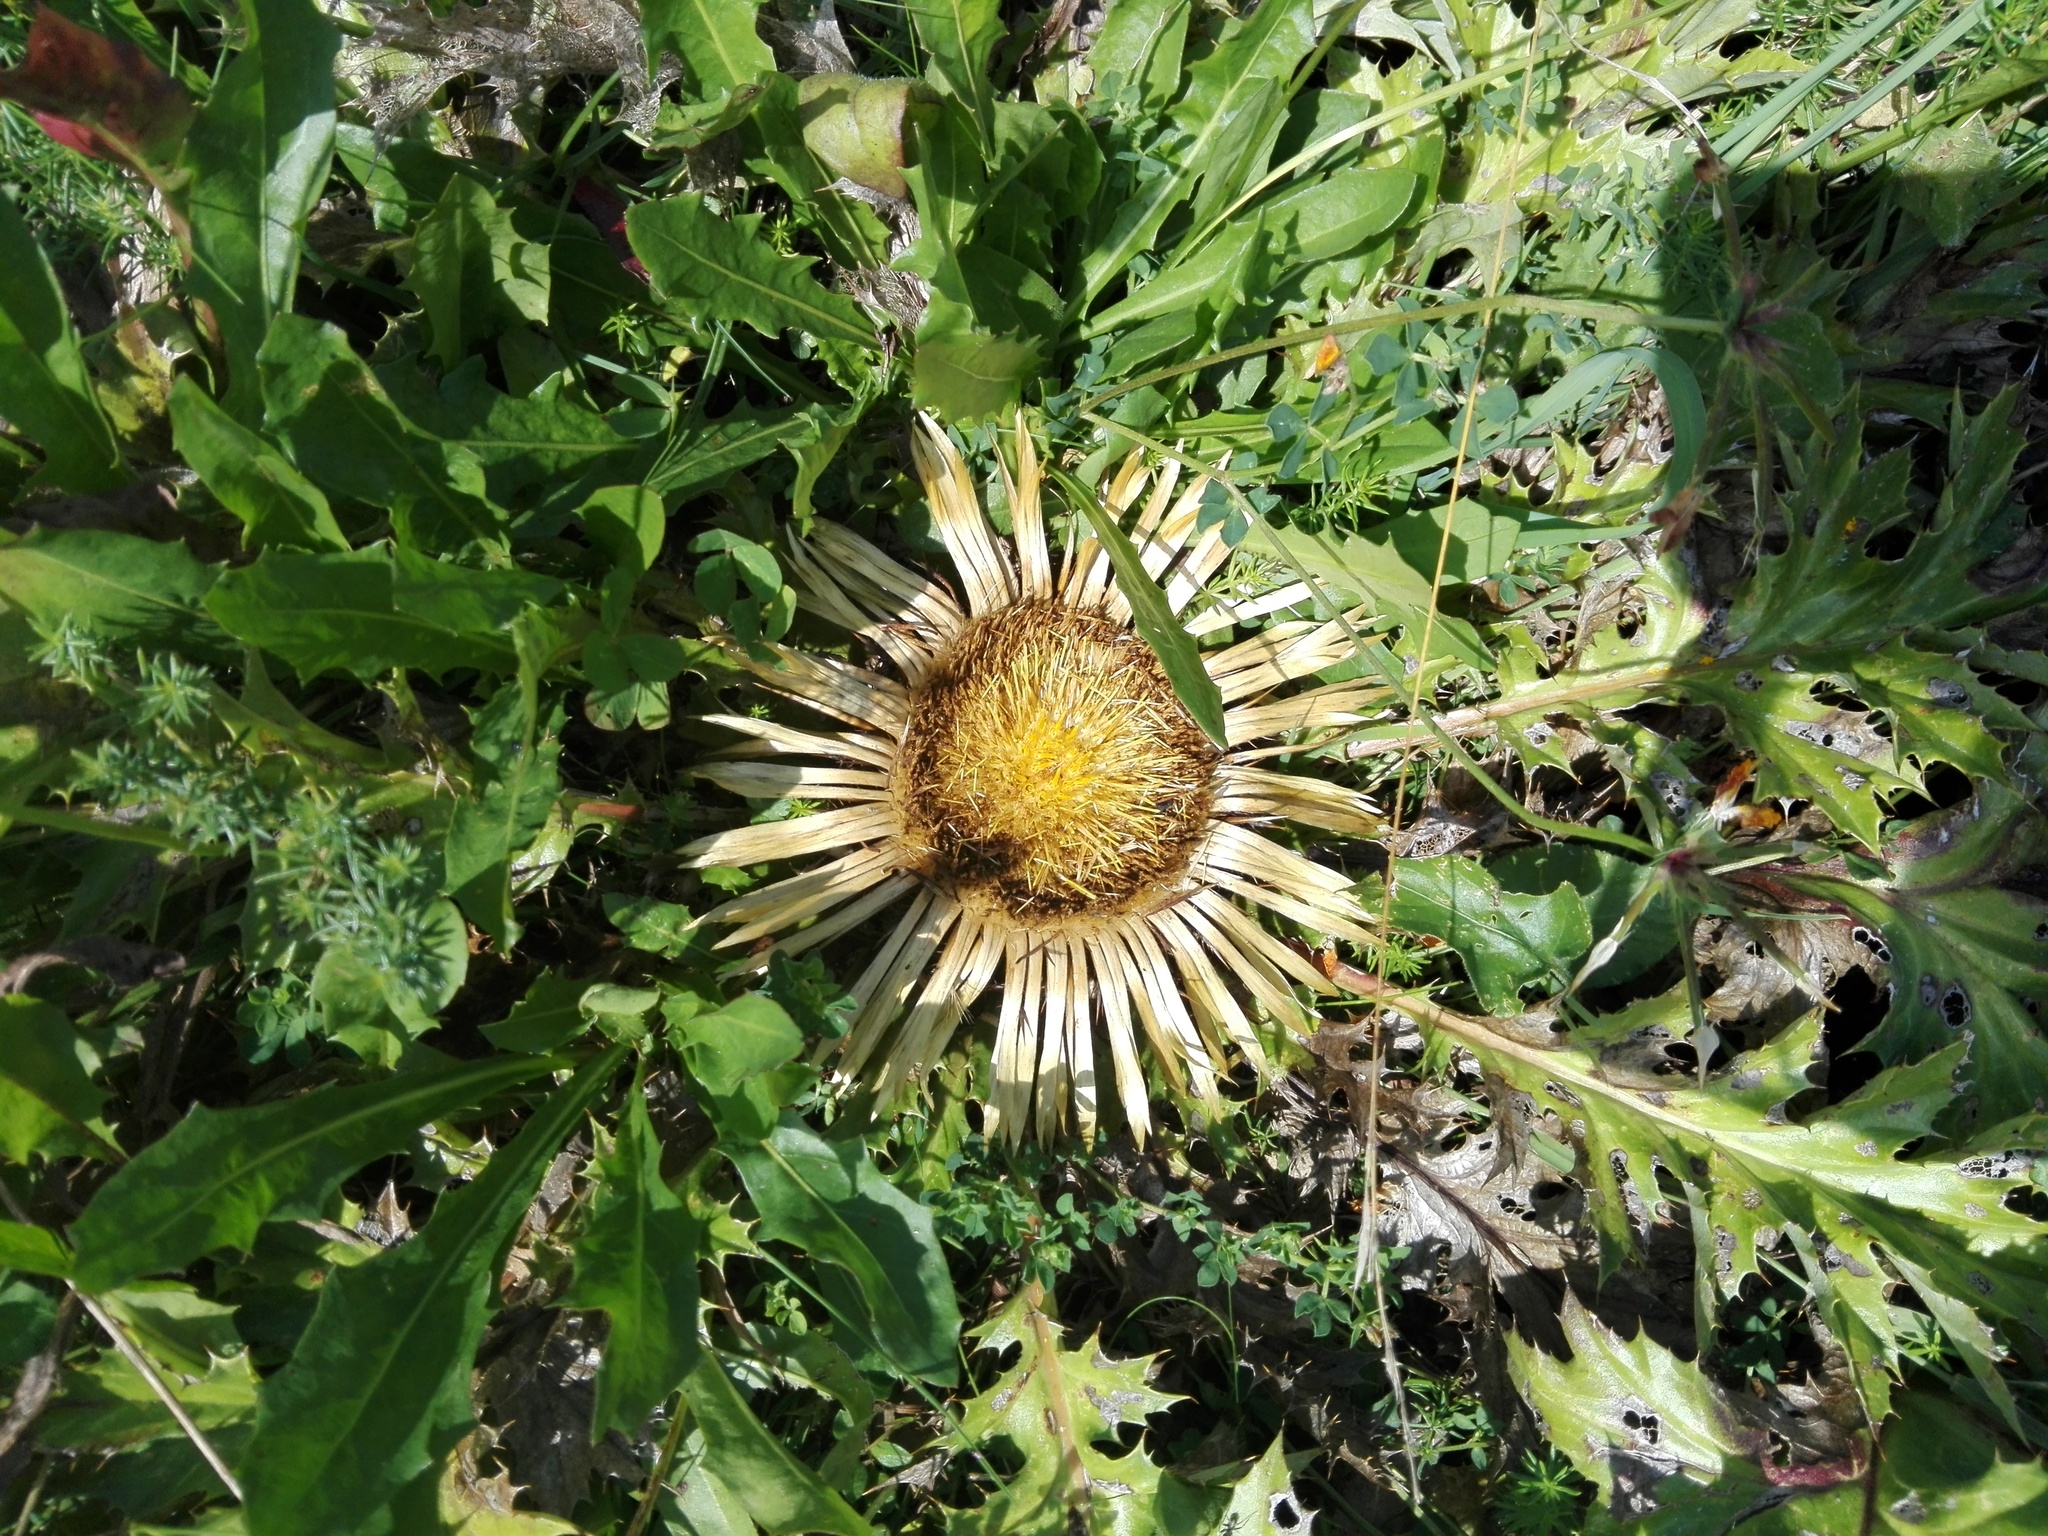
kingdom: Plantae
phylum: Tracheophyta
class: Magnoliopsida
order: Asterales
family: Asteraceae
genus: Carlina
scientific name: Carlina acanthifolia
